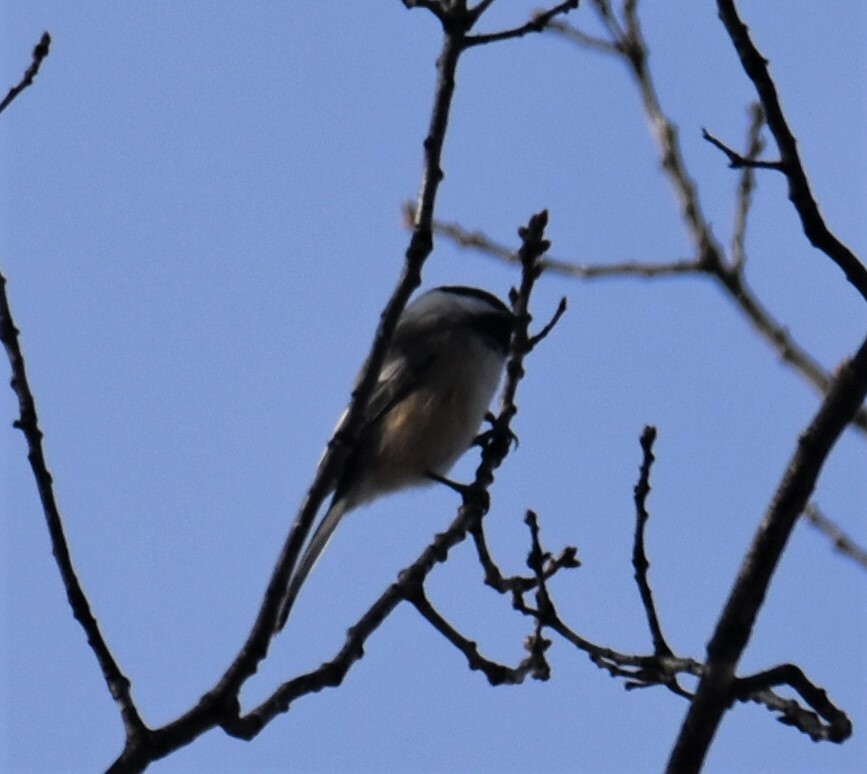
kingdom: Animalia
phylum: Chordata
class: Aves
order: Passeriformes
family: Paridae
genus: Poecile
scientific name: Poecile atricapillus
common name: Black-capped chickadee
